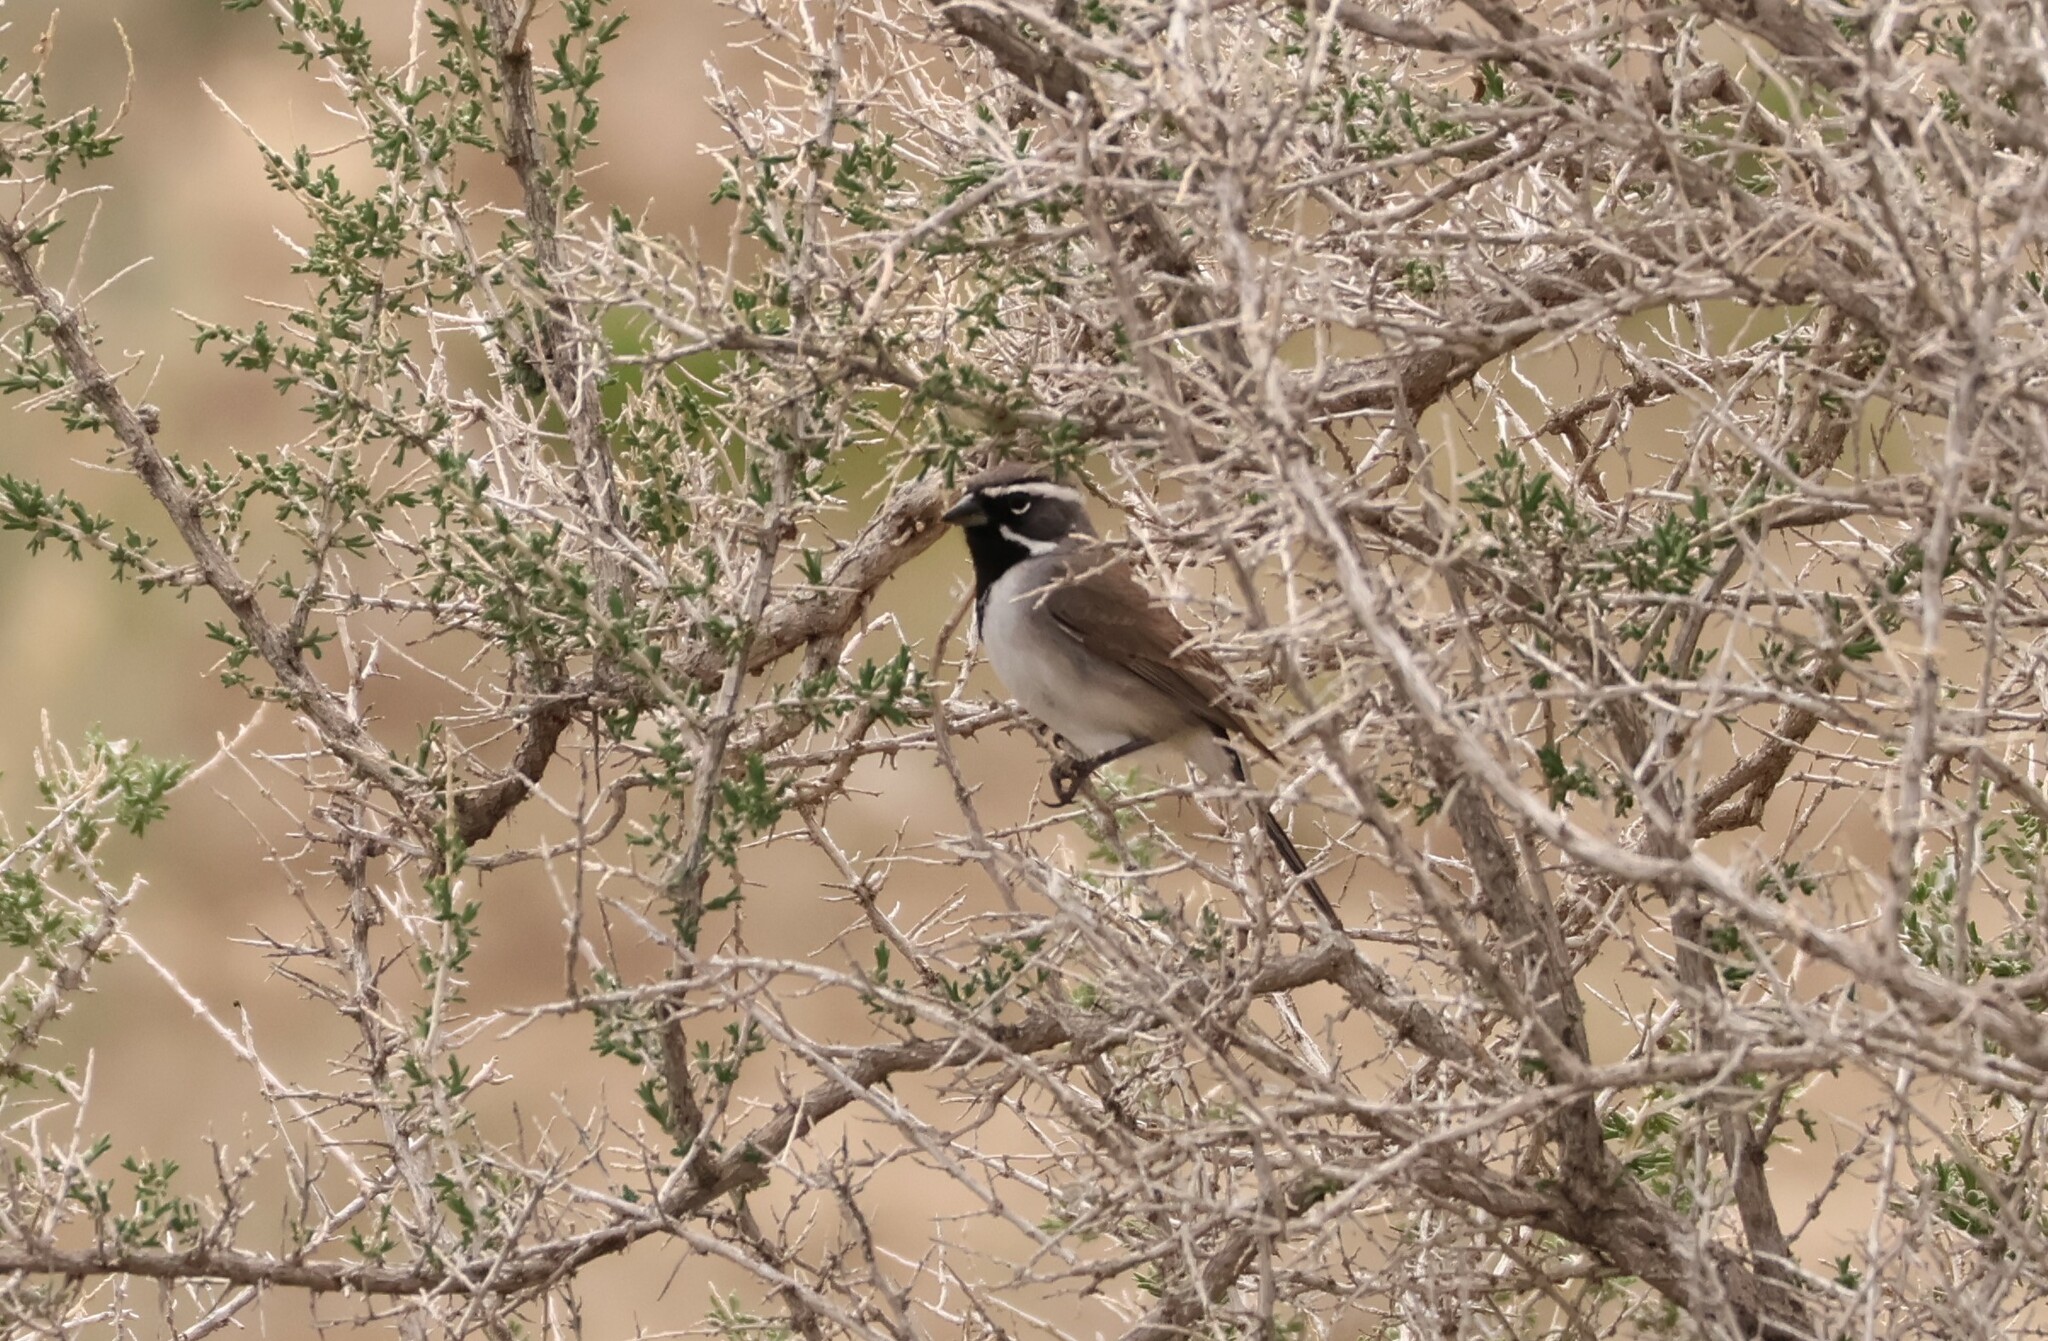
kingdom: Animalia
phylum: Chordata
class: Aves
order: Passeriformes
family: Passerellidae
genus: Amphispiza
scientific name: Amphispiza bilineata
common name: Black-throated sparrow
